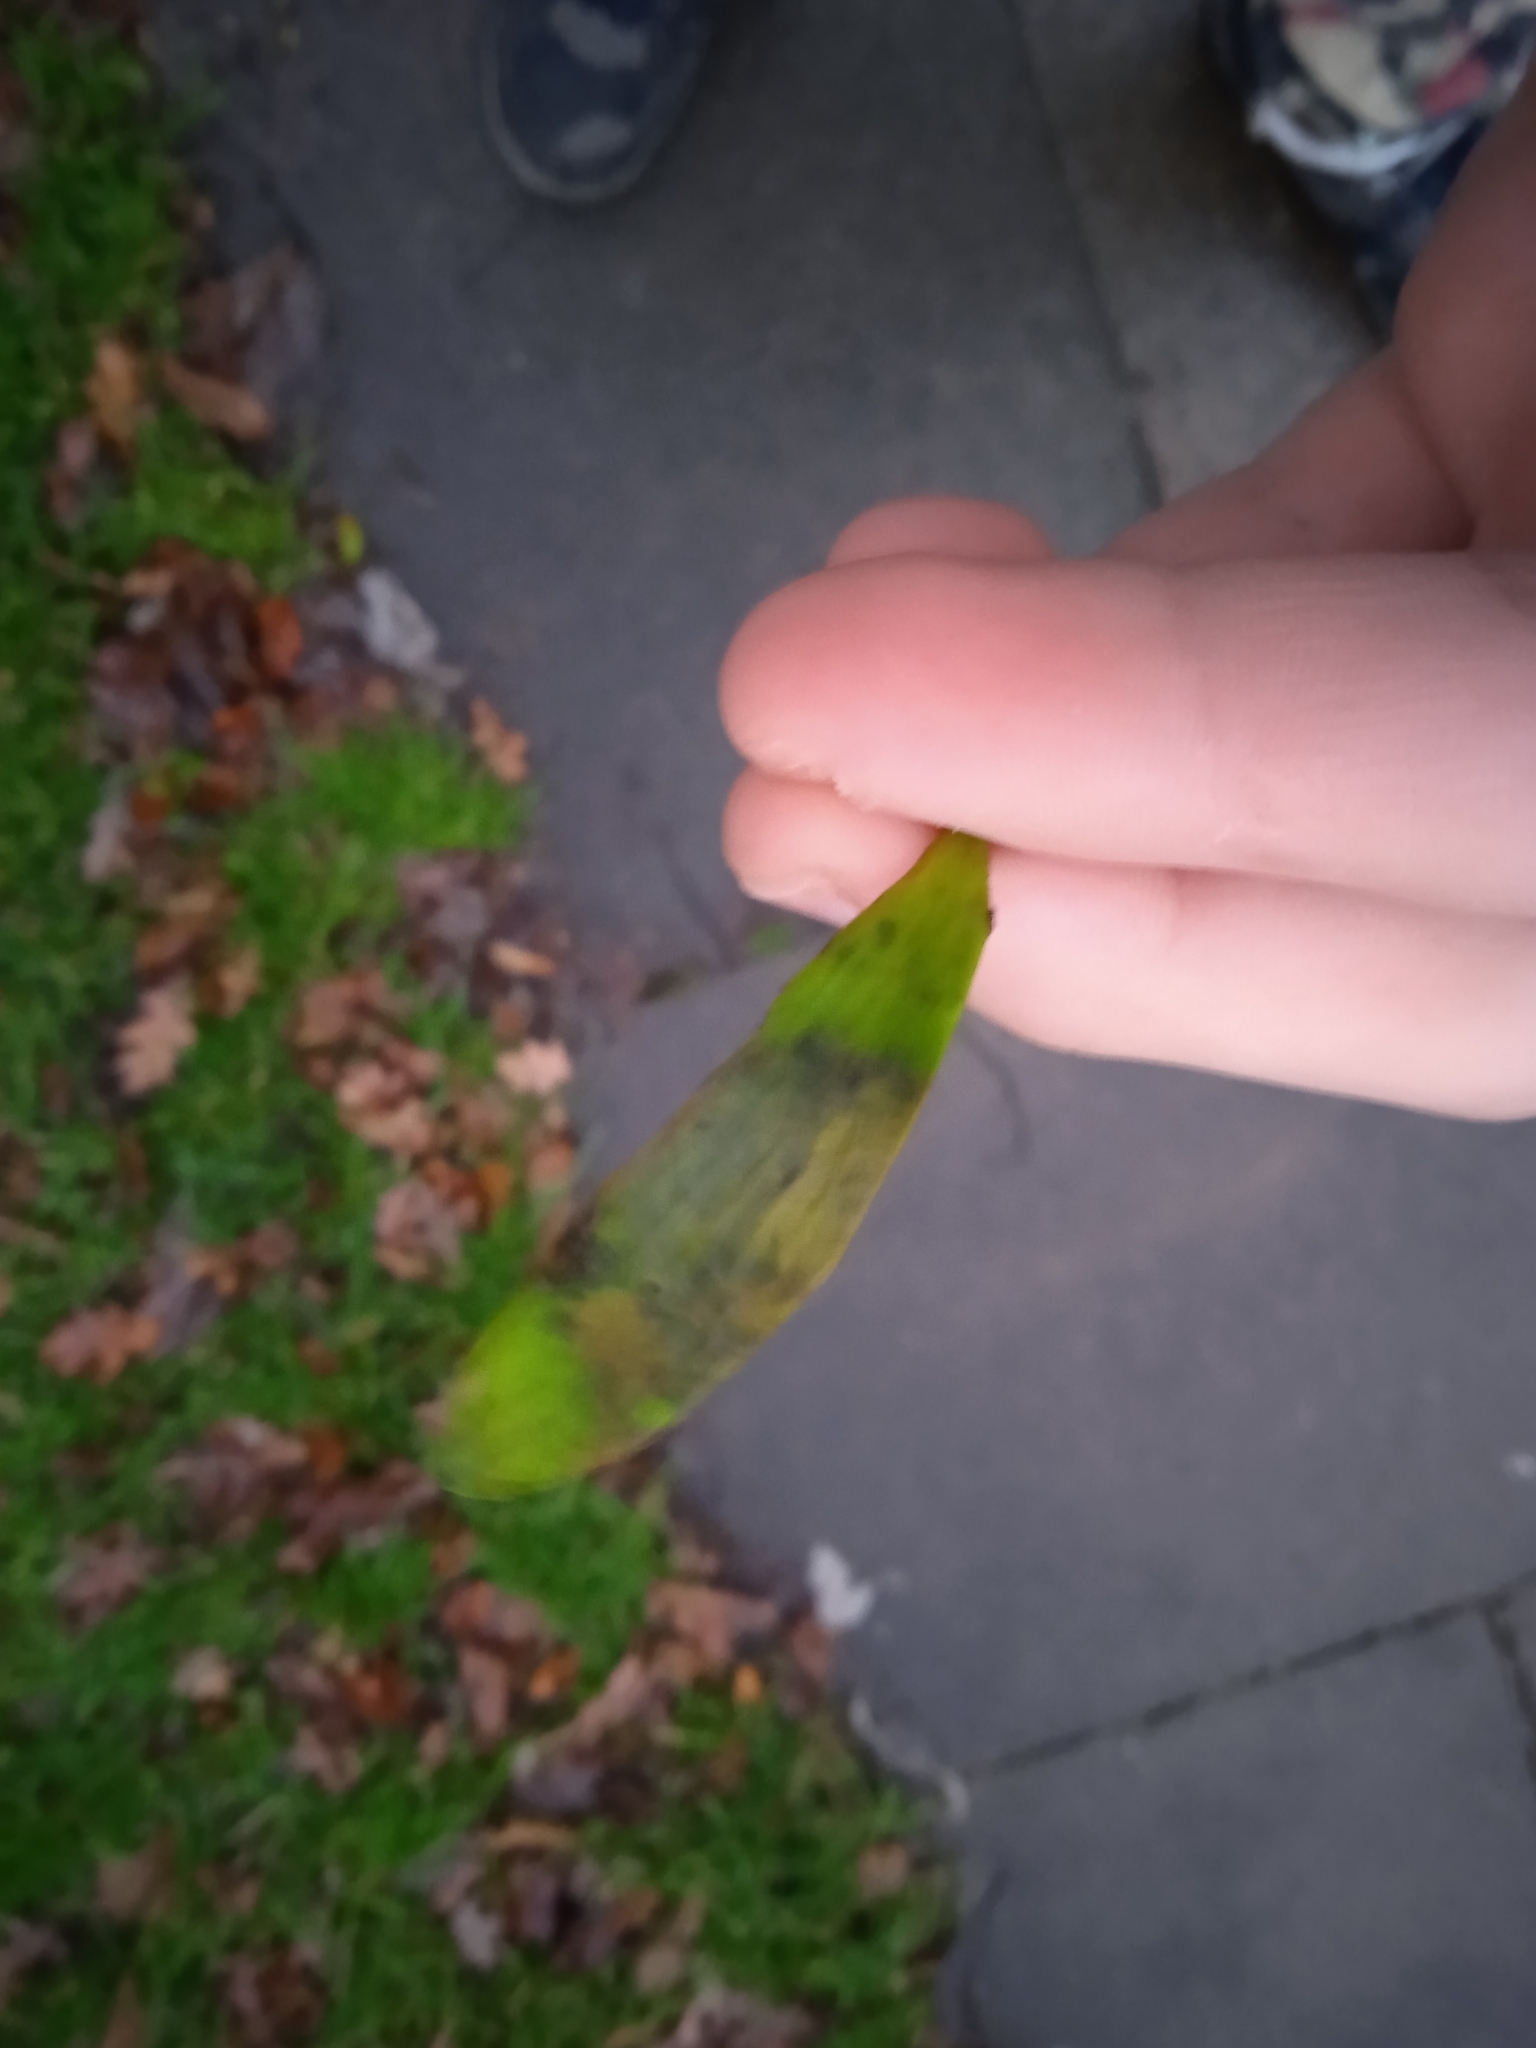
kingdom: Plantae
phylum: Tracheophyta
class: Magnoliopsida
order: Santalales
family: Viscaceae
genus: Viscum
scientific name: Viscum album
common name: Mistletoe
